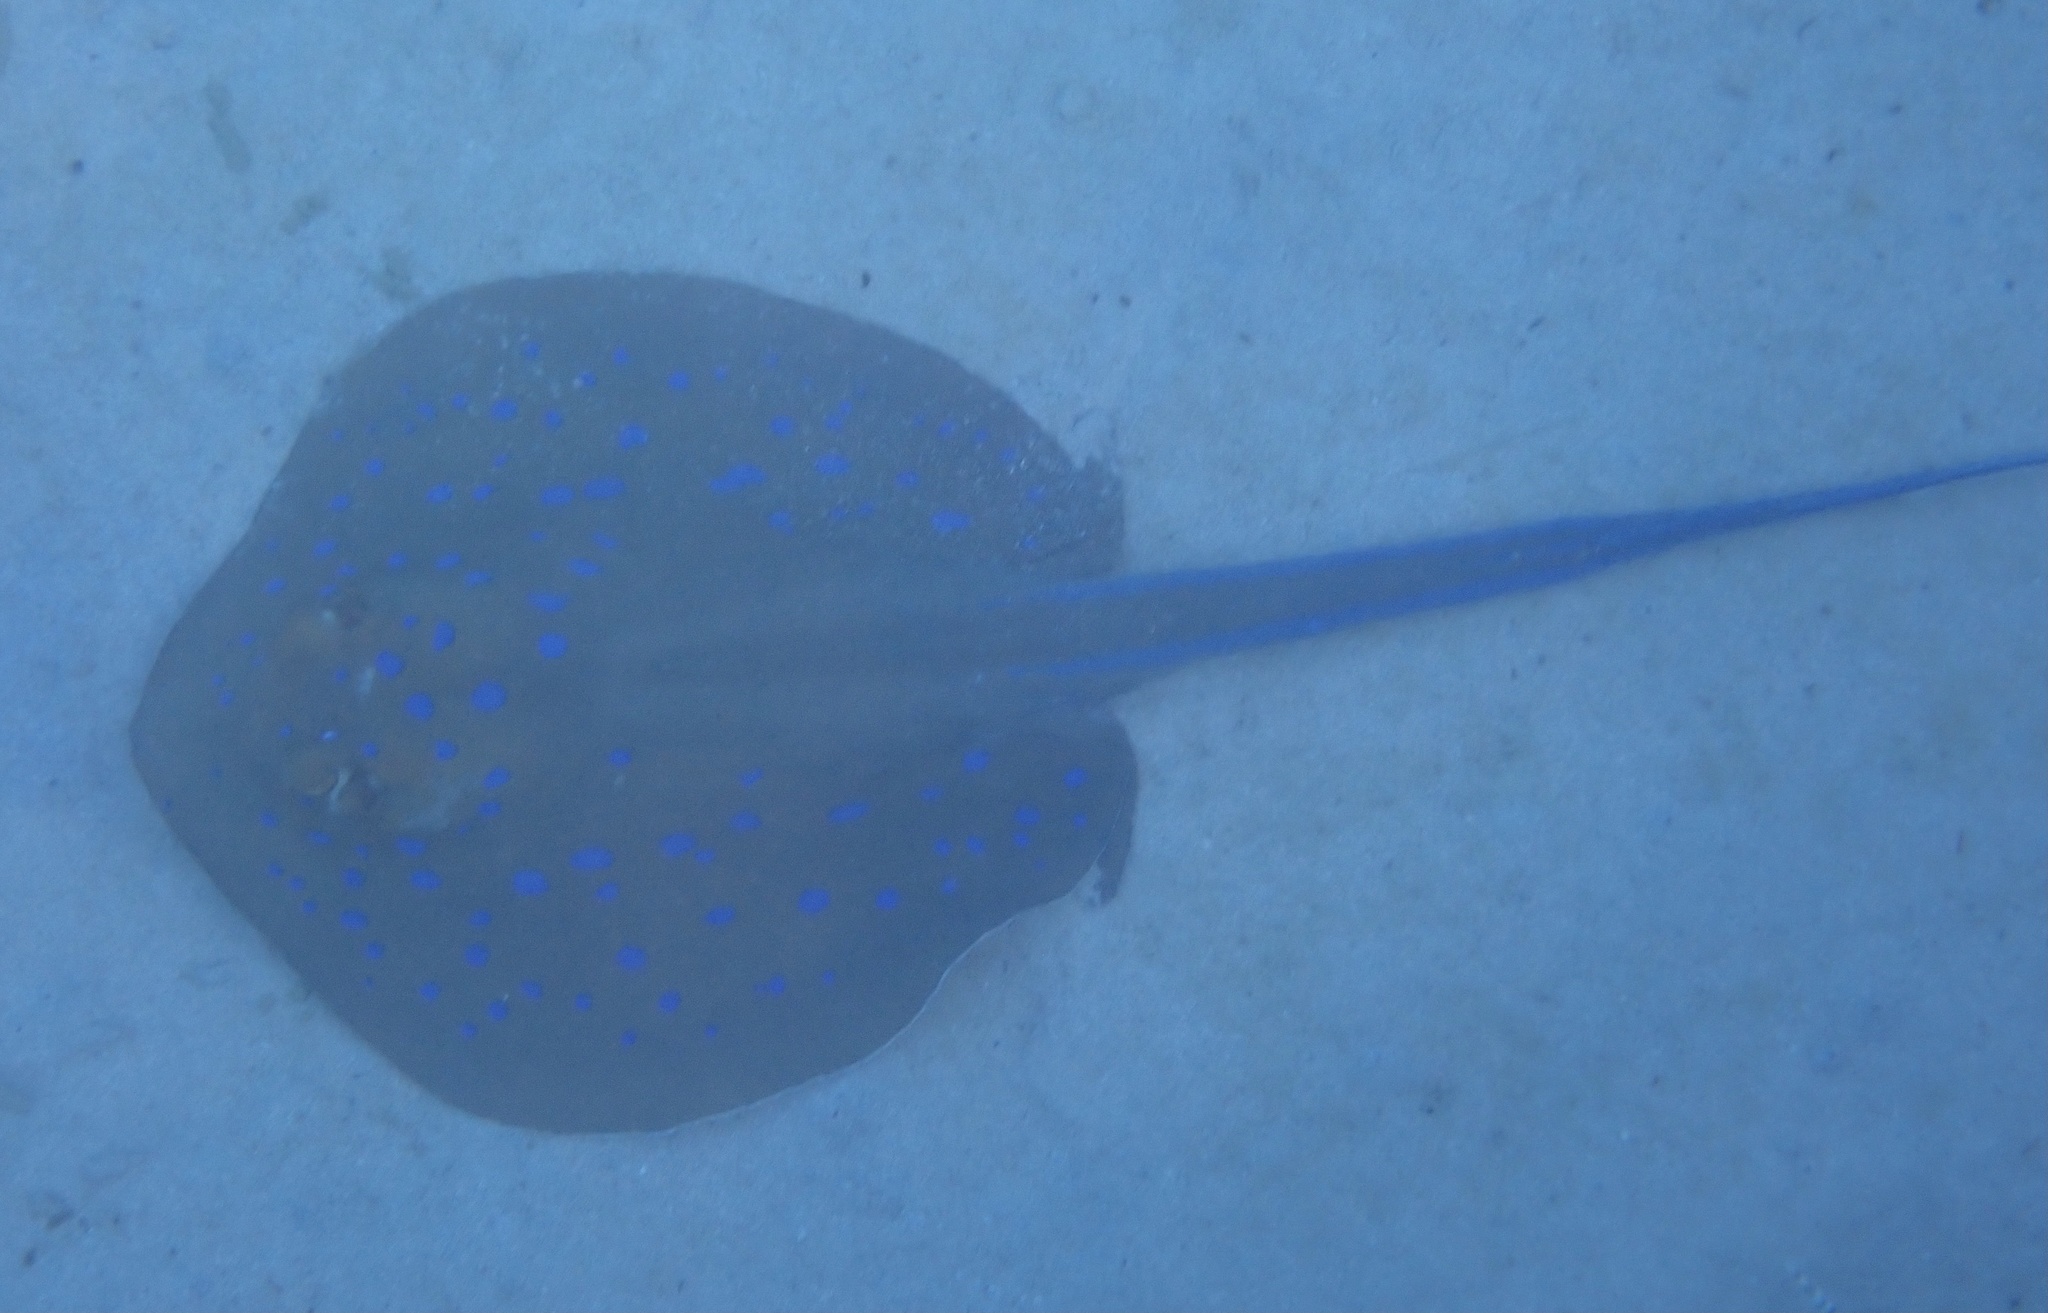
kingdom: Animalia
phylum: Chordata
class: Elasmobranchii
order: Myliobatiformes
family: Dasyatidae
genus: Taeniura
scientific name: Taeniura lymma
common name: Bluespotted ribbontail ray
